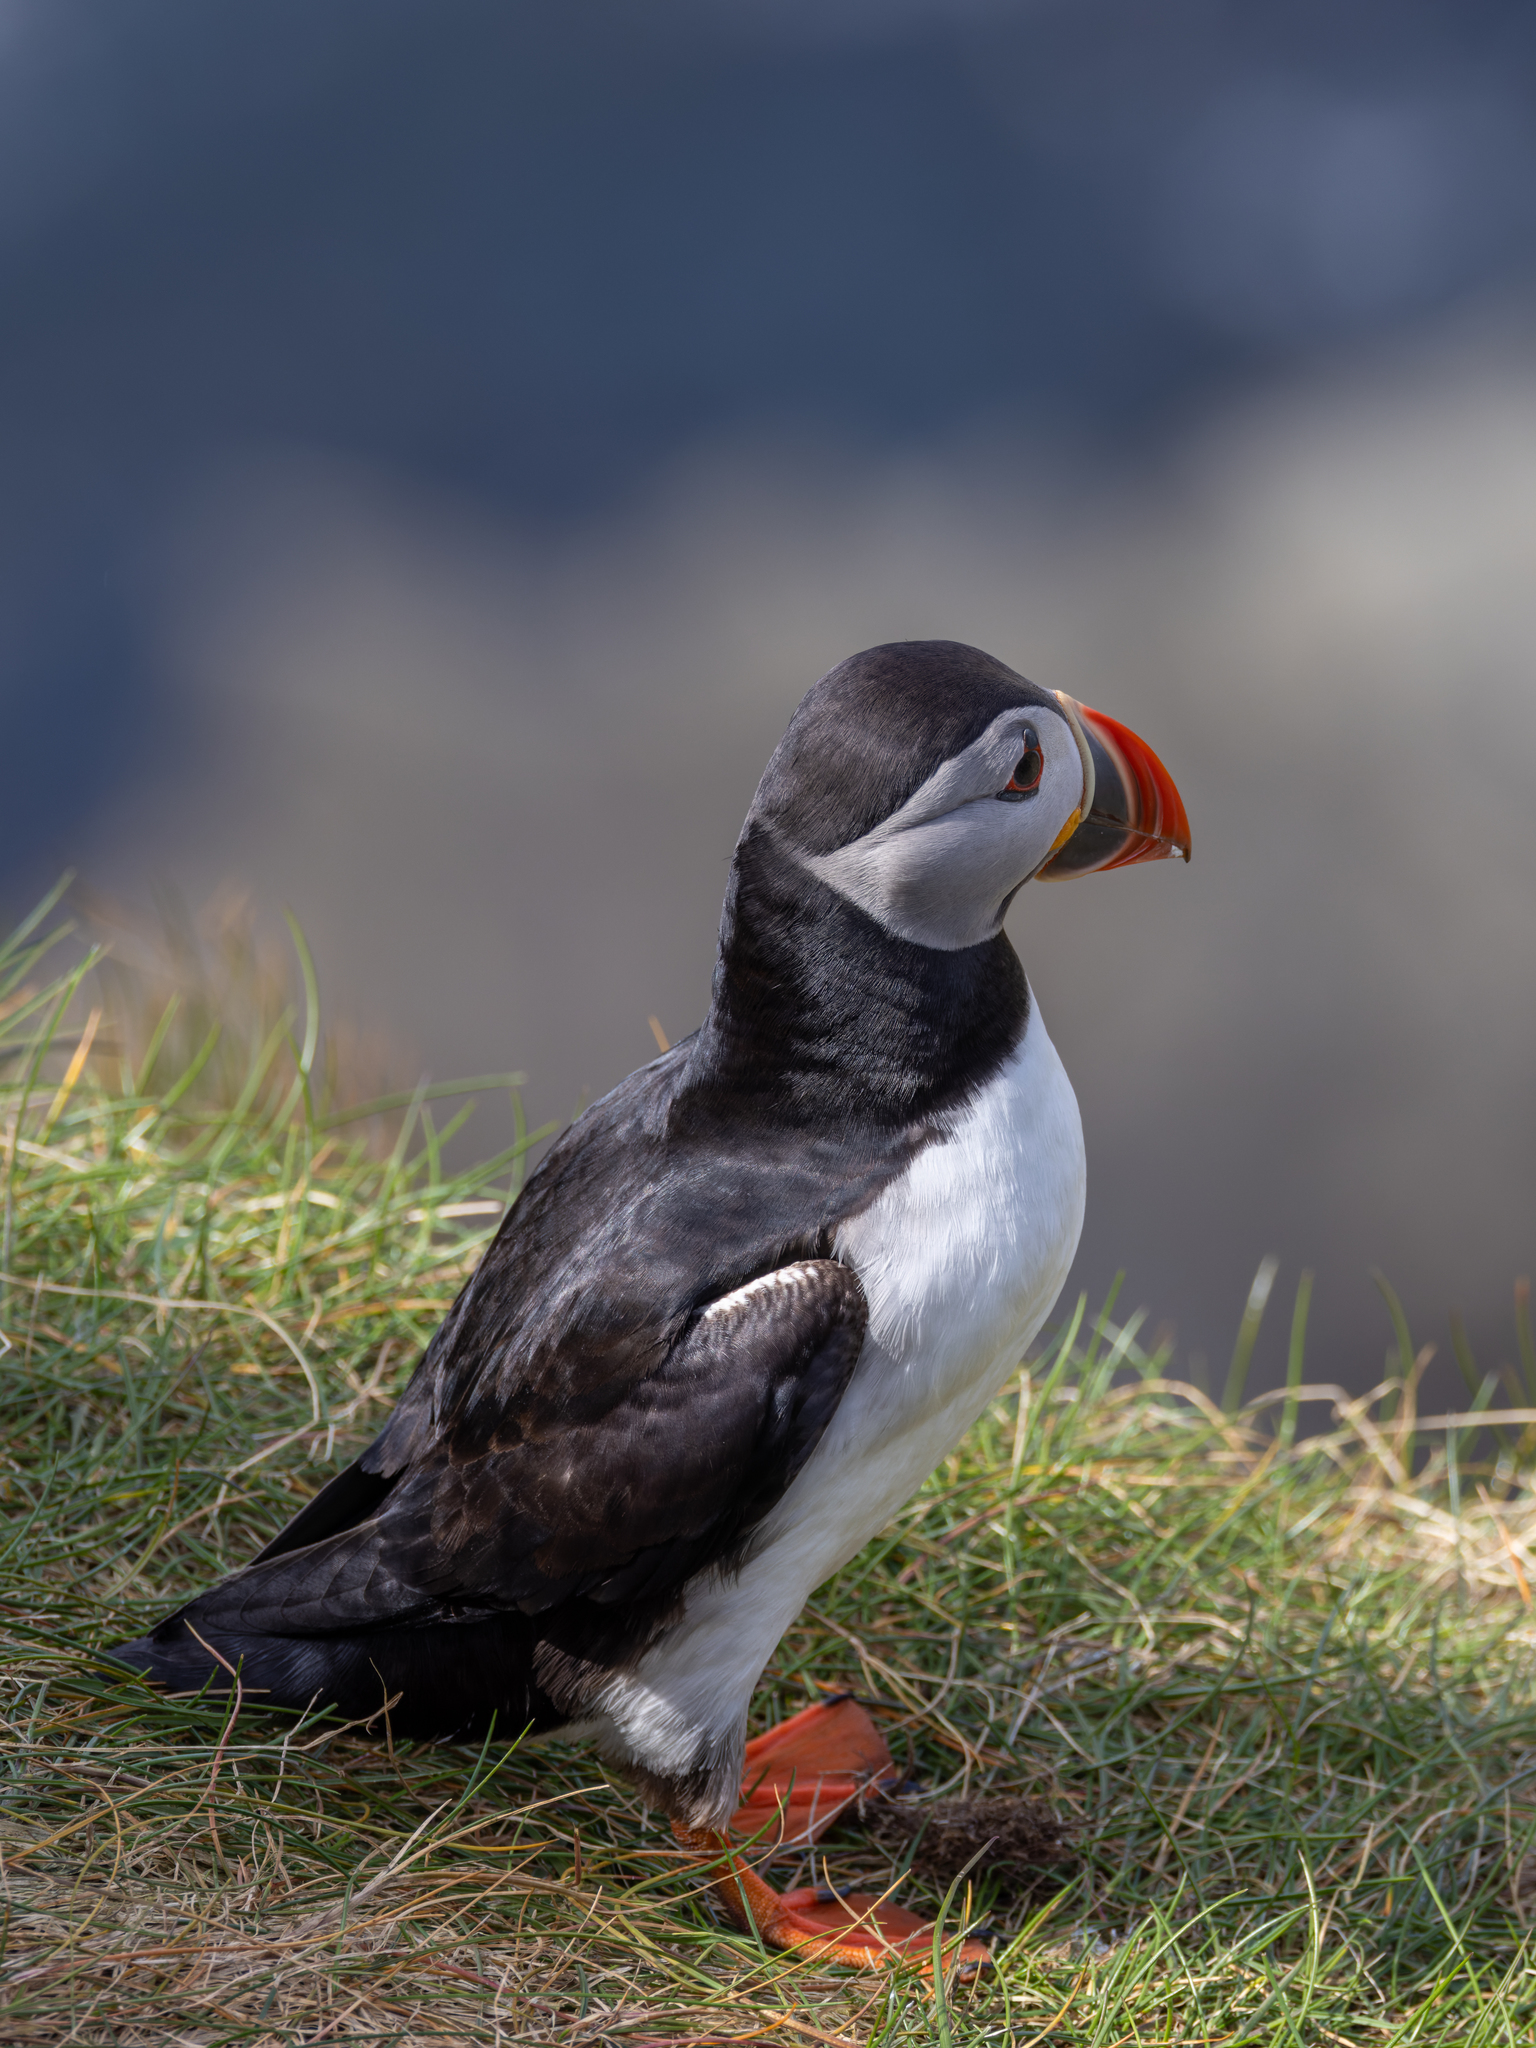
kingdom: Animalia
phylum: Chordata
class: Aves
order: Charadriiformes
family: Alcidae
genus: Fratercula
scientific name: Fratercula arctica
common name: Atlantic puffin
